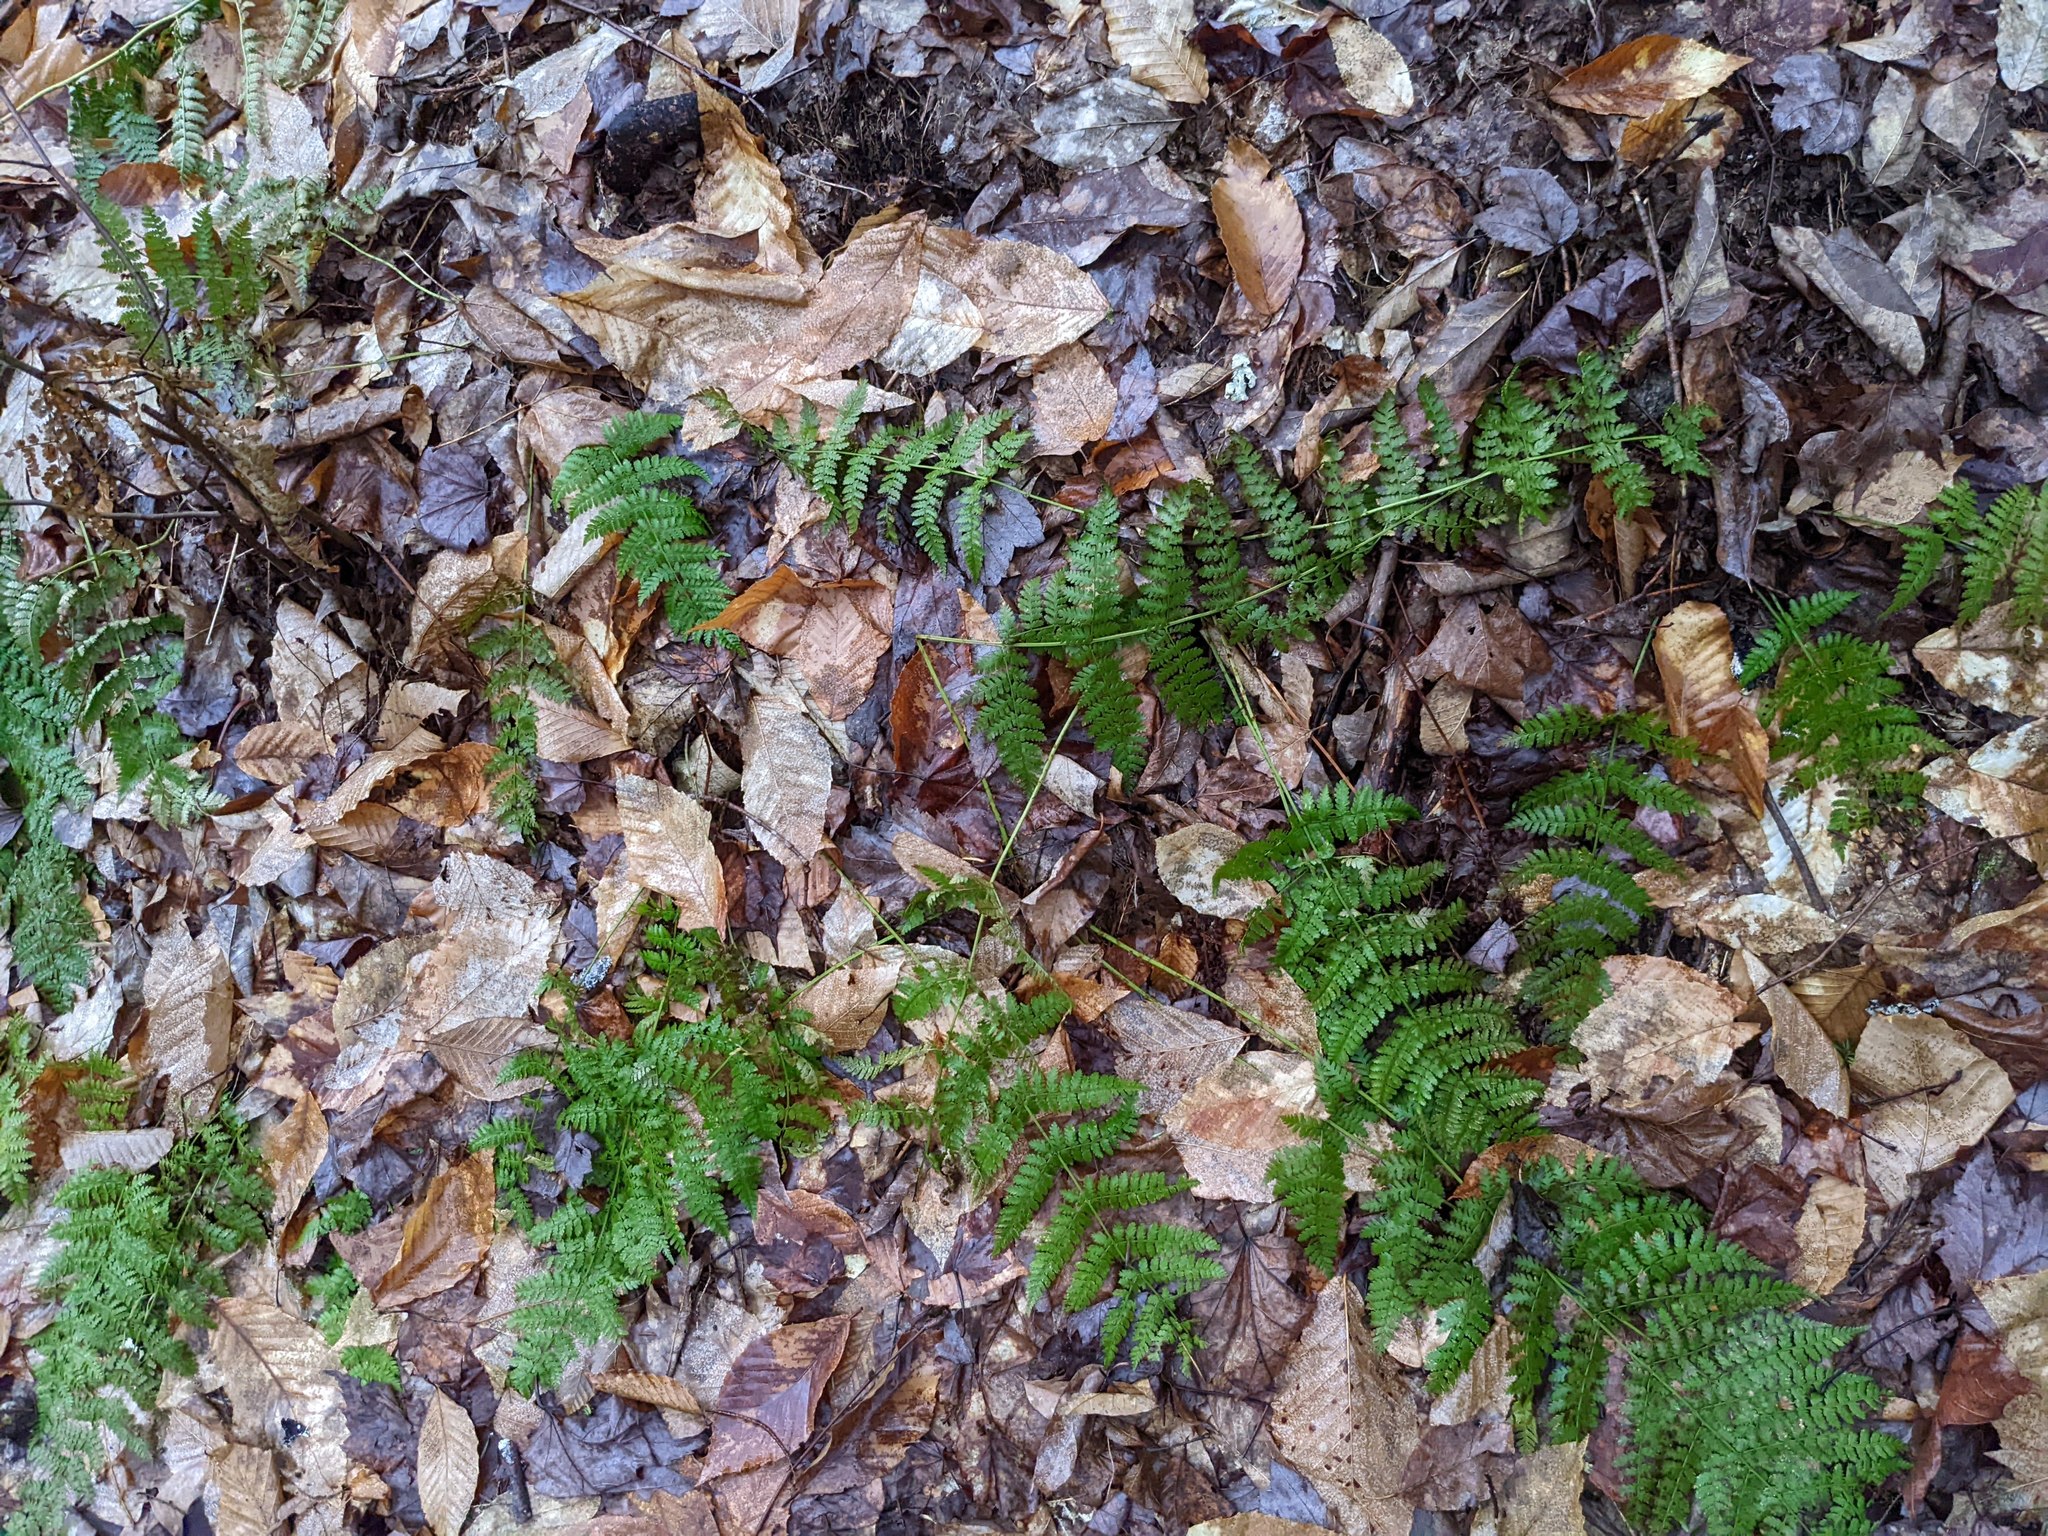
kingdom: Plantae
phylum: Tracheophyta
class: Polypodiopsida
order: Polypodiales
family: Dryopteridaceae
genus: Dryopteris
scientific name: Dryopteris intermedia
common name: Evergreen wood fern
